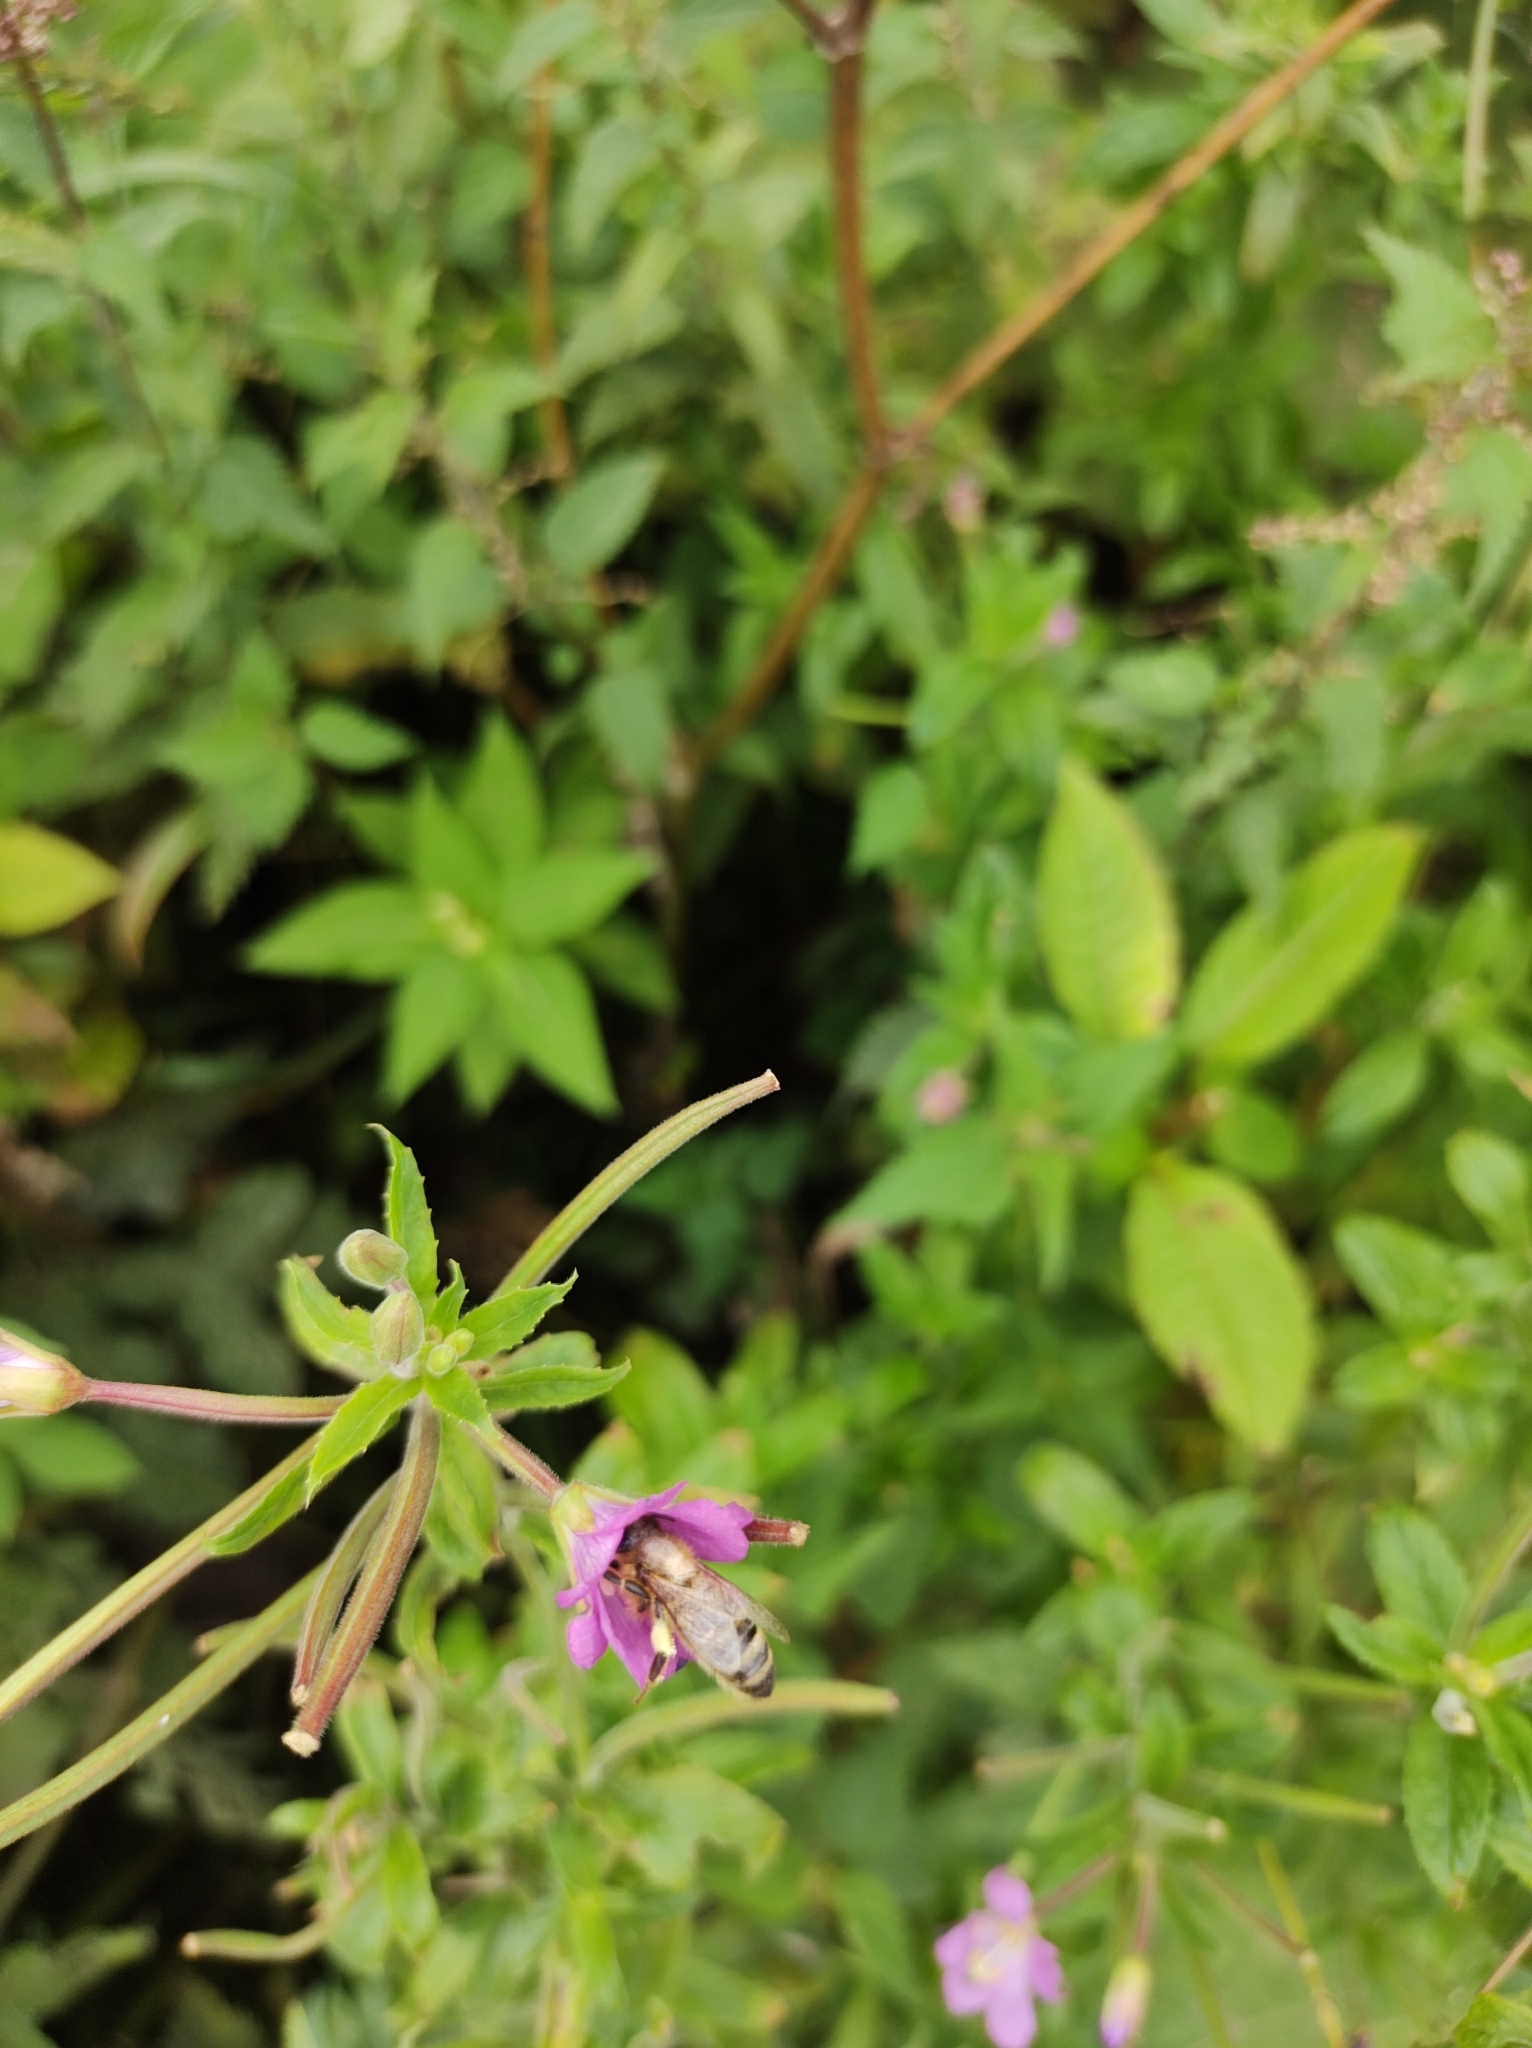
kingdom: Animalia
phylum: Arthropoda
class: Insecta
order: Hymenoptera
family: Apidae
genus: Apis
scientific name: Apis mellifera
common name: Honey bee
